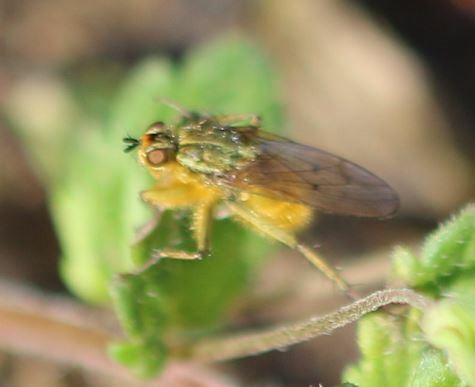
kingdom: Animalia
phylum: Arthropoda
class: Insecta
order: Diptera
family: Scathophagidae
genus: Scathophaga
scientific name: Scathophaga stercoraria
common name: Yellow dung fly
